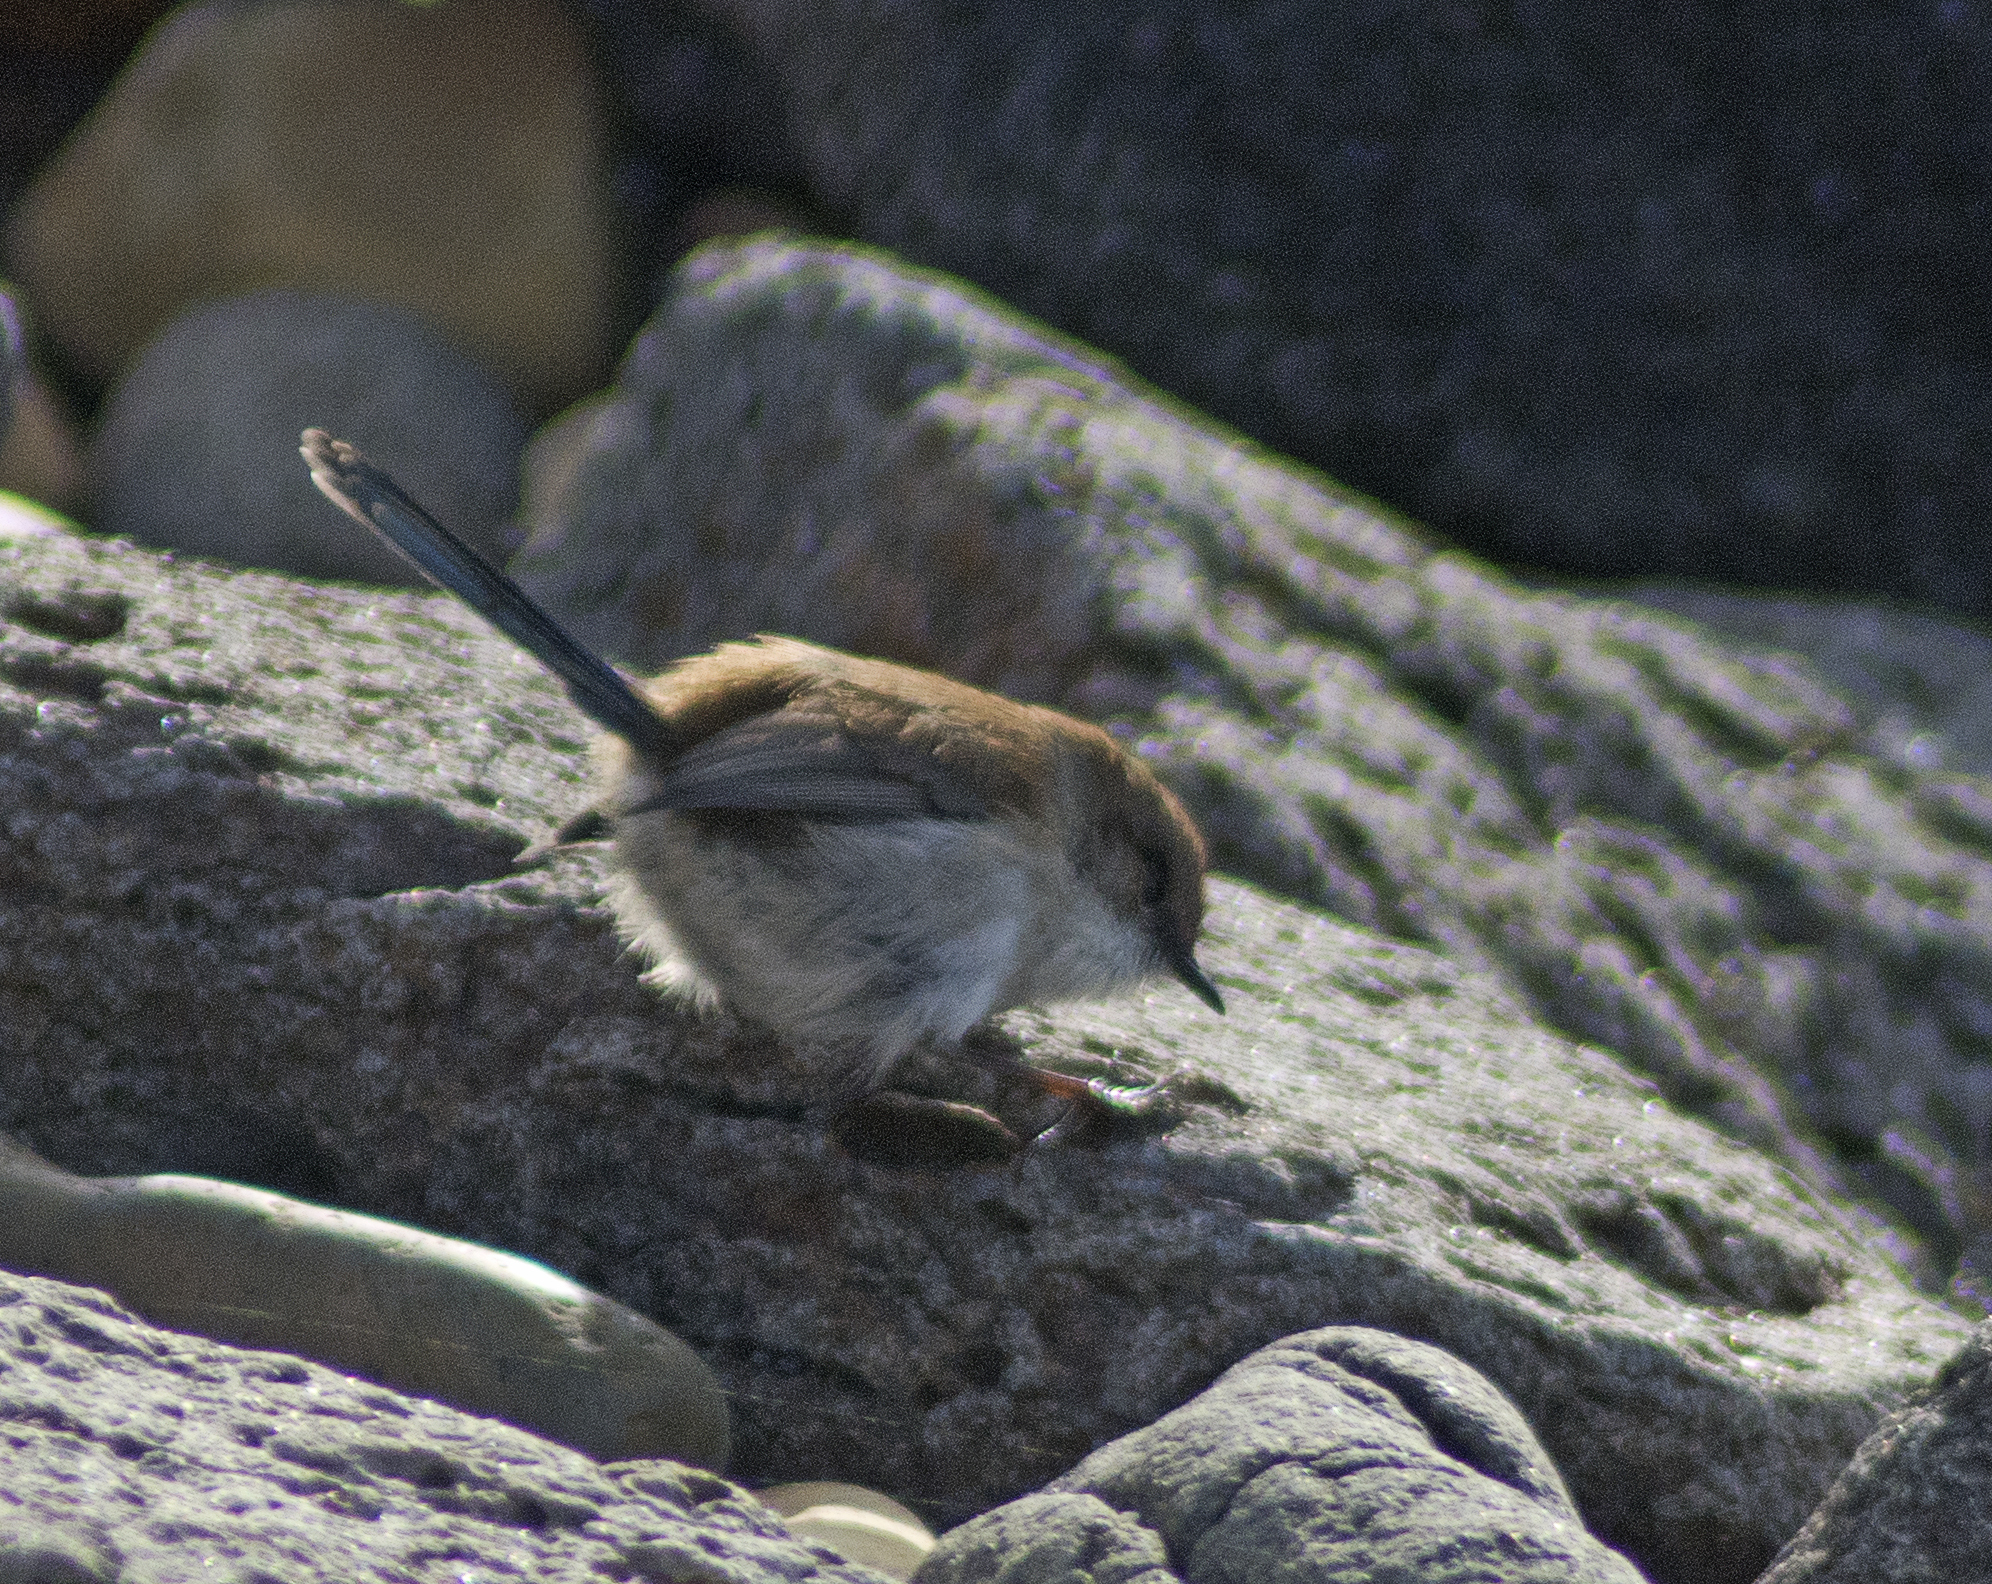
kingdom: Animalia
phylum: Chordata
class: Aves
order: Passeriformes
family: Maluridae
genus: Malurus
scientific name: Malurus cyaneus
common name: Superb fairywren
